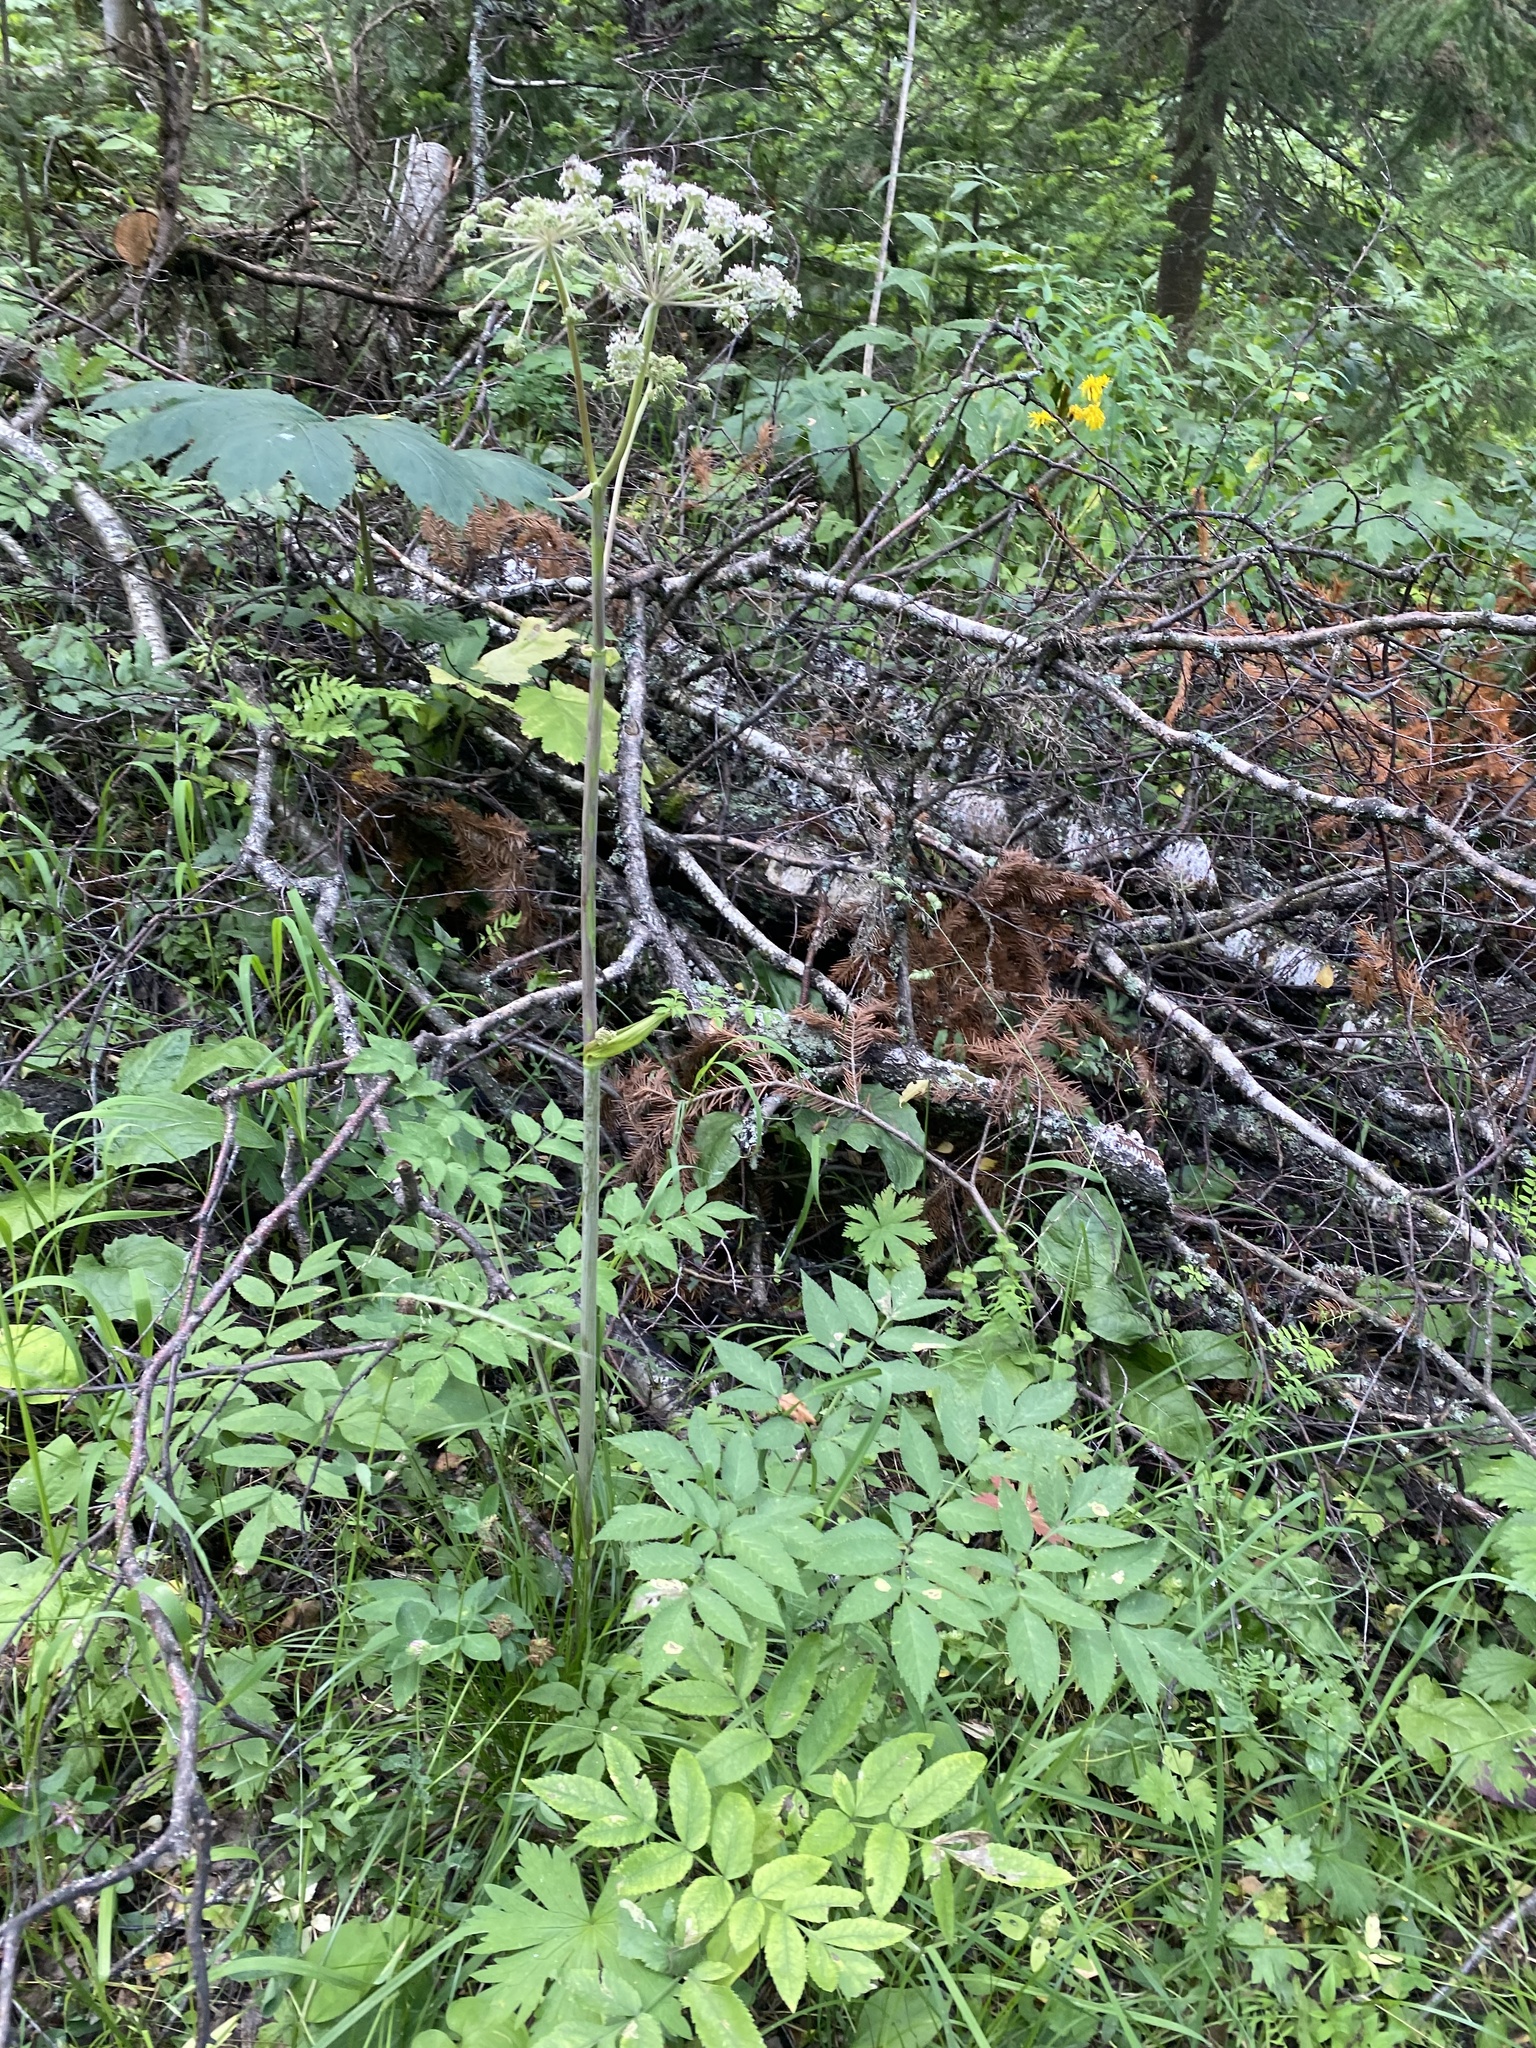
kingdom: Plantae
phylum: Tracheophyta
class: Magnoliopsida
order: Apiales
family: Apiaceae
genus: Angelica
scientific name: Angelica sylvestris
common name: Wild angelica
